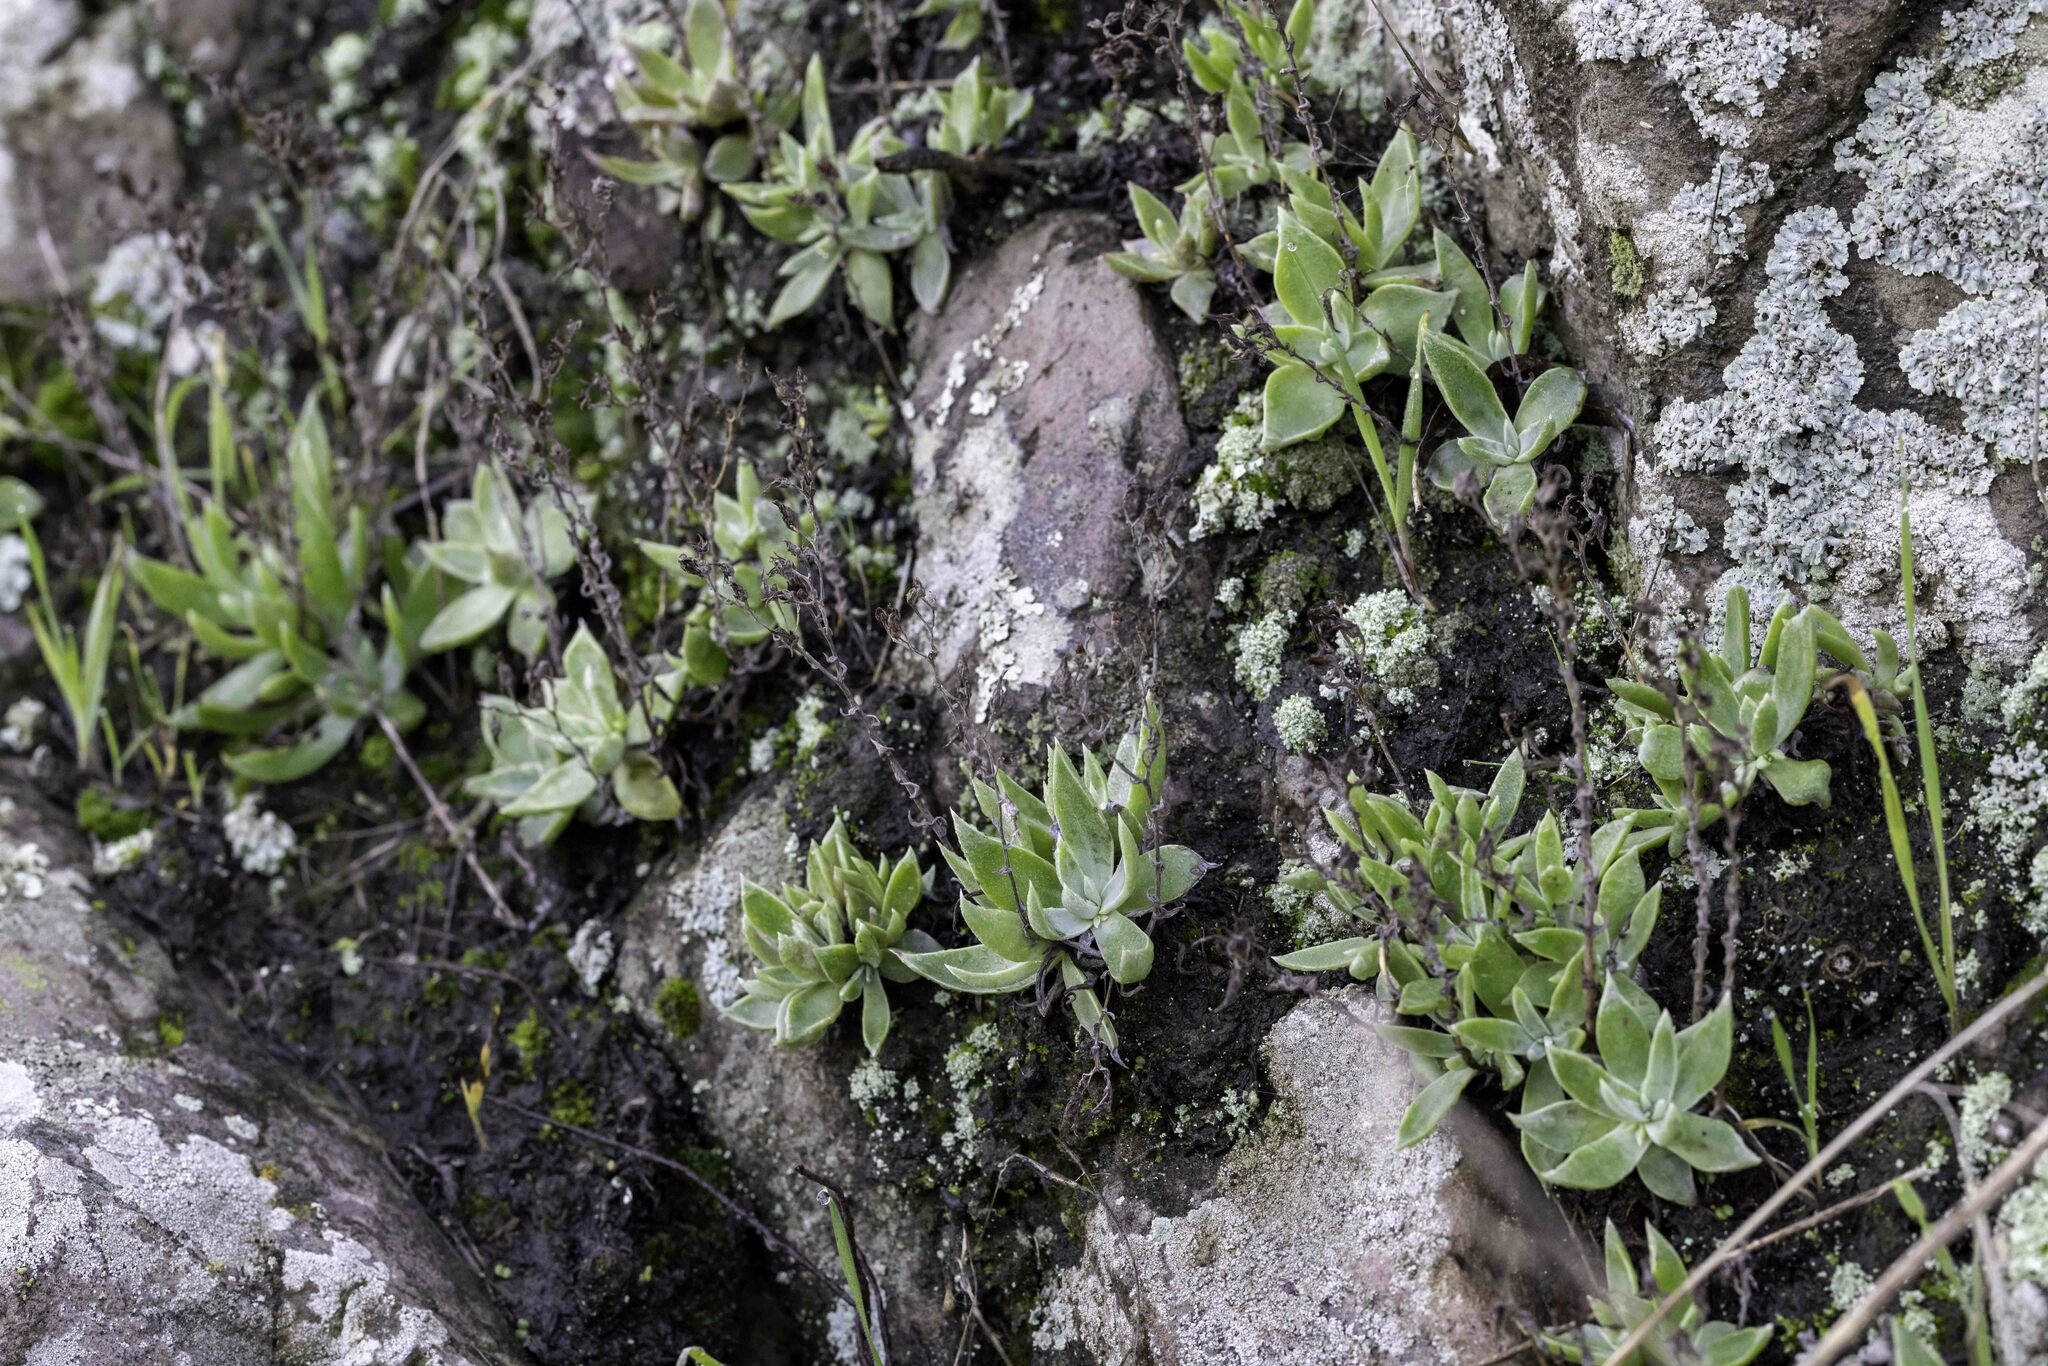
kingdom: Plantae
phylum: Tracheophyta
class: Magnoliopsida
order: Saxifragales
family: Crassulaceae
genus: Dudleya
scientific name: Dudleya verityi
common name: Verity dudleya
